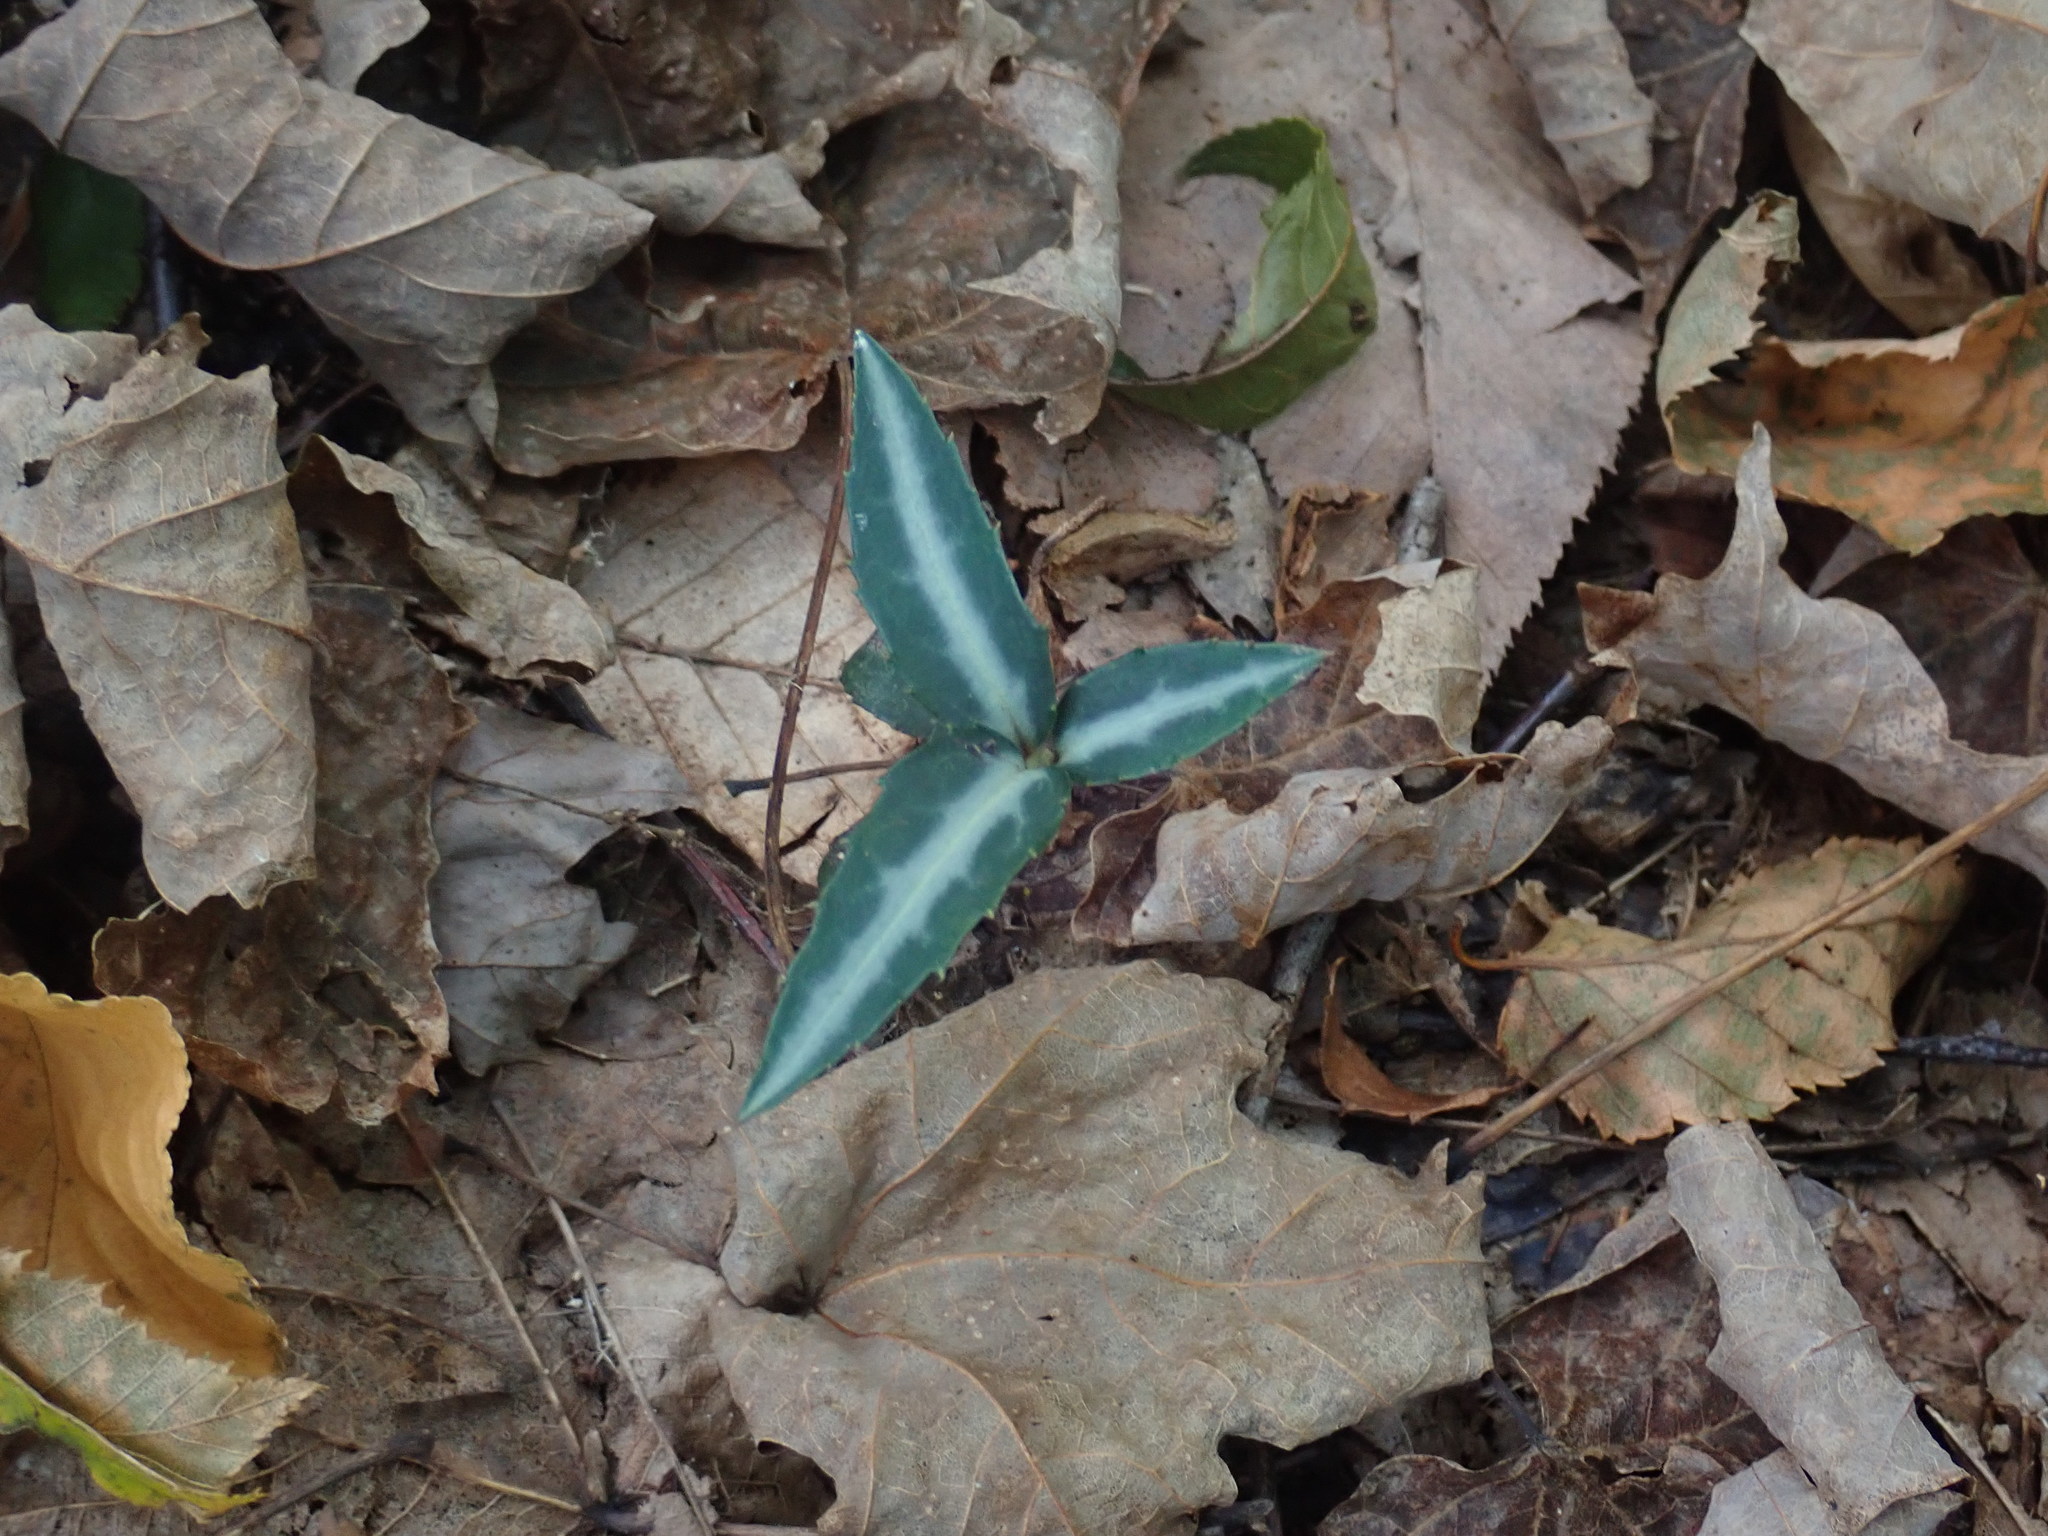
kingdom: Plantae
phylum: Tracheophyta
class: Magnoliopsida
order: Ericales
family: Ericaceae
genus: Chimaphila
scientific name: Chimaphila maculata
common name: Spotted pipsissewa
